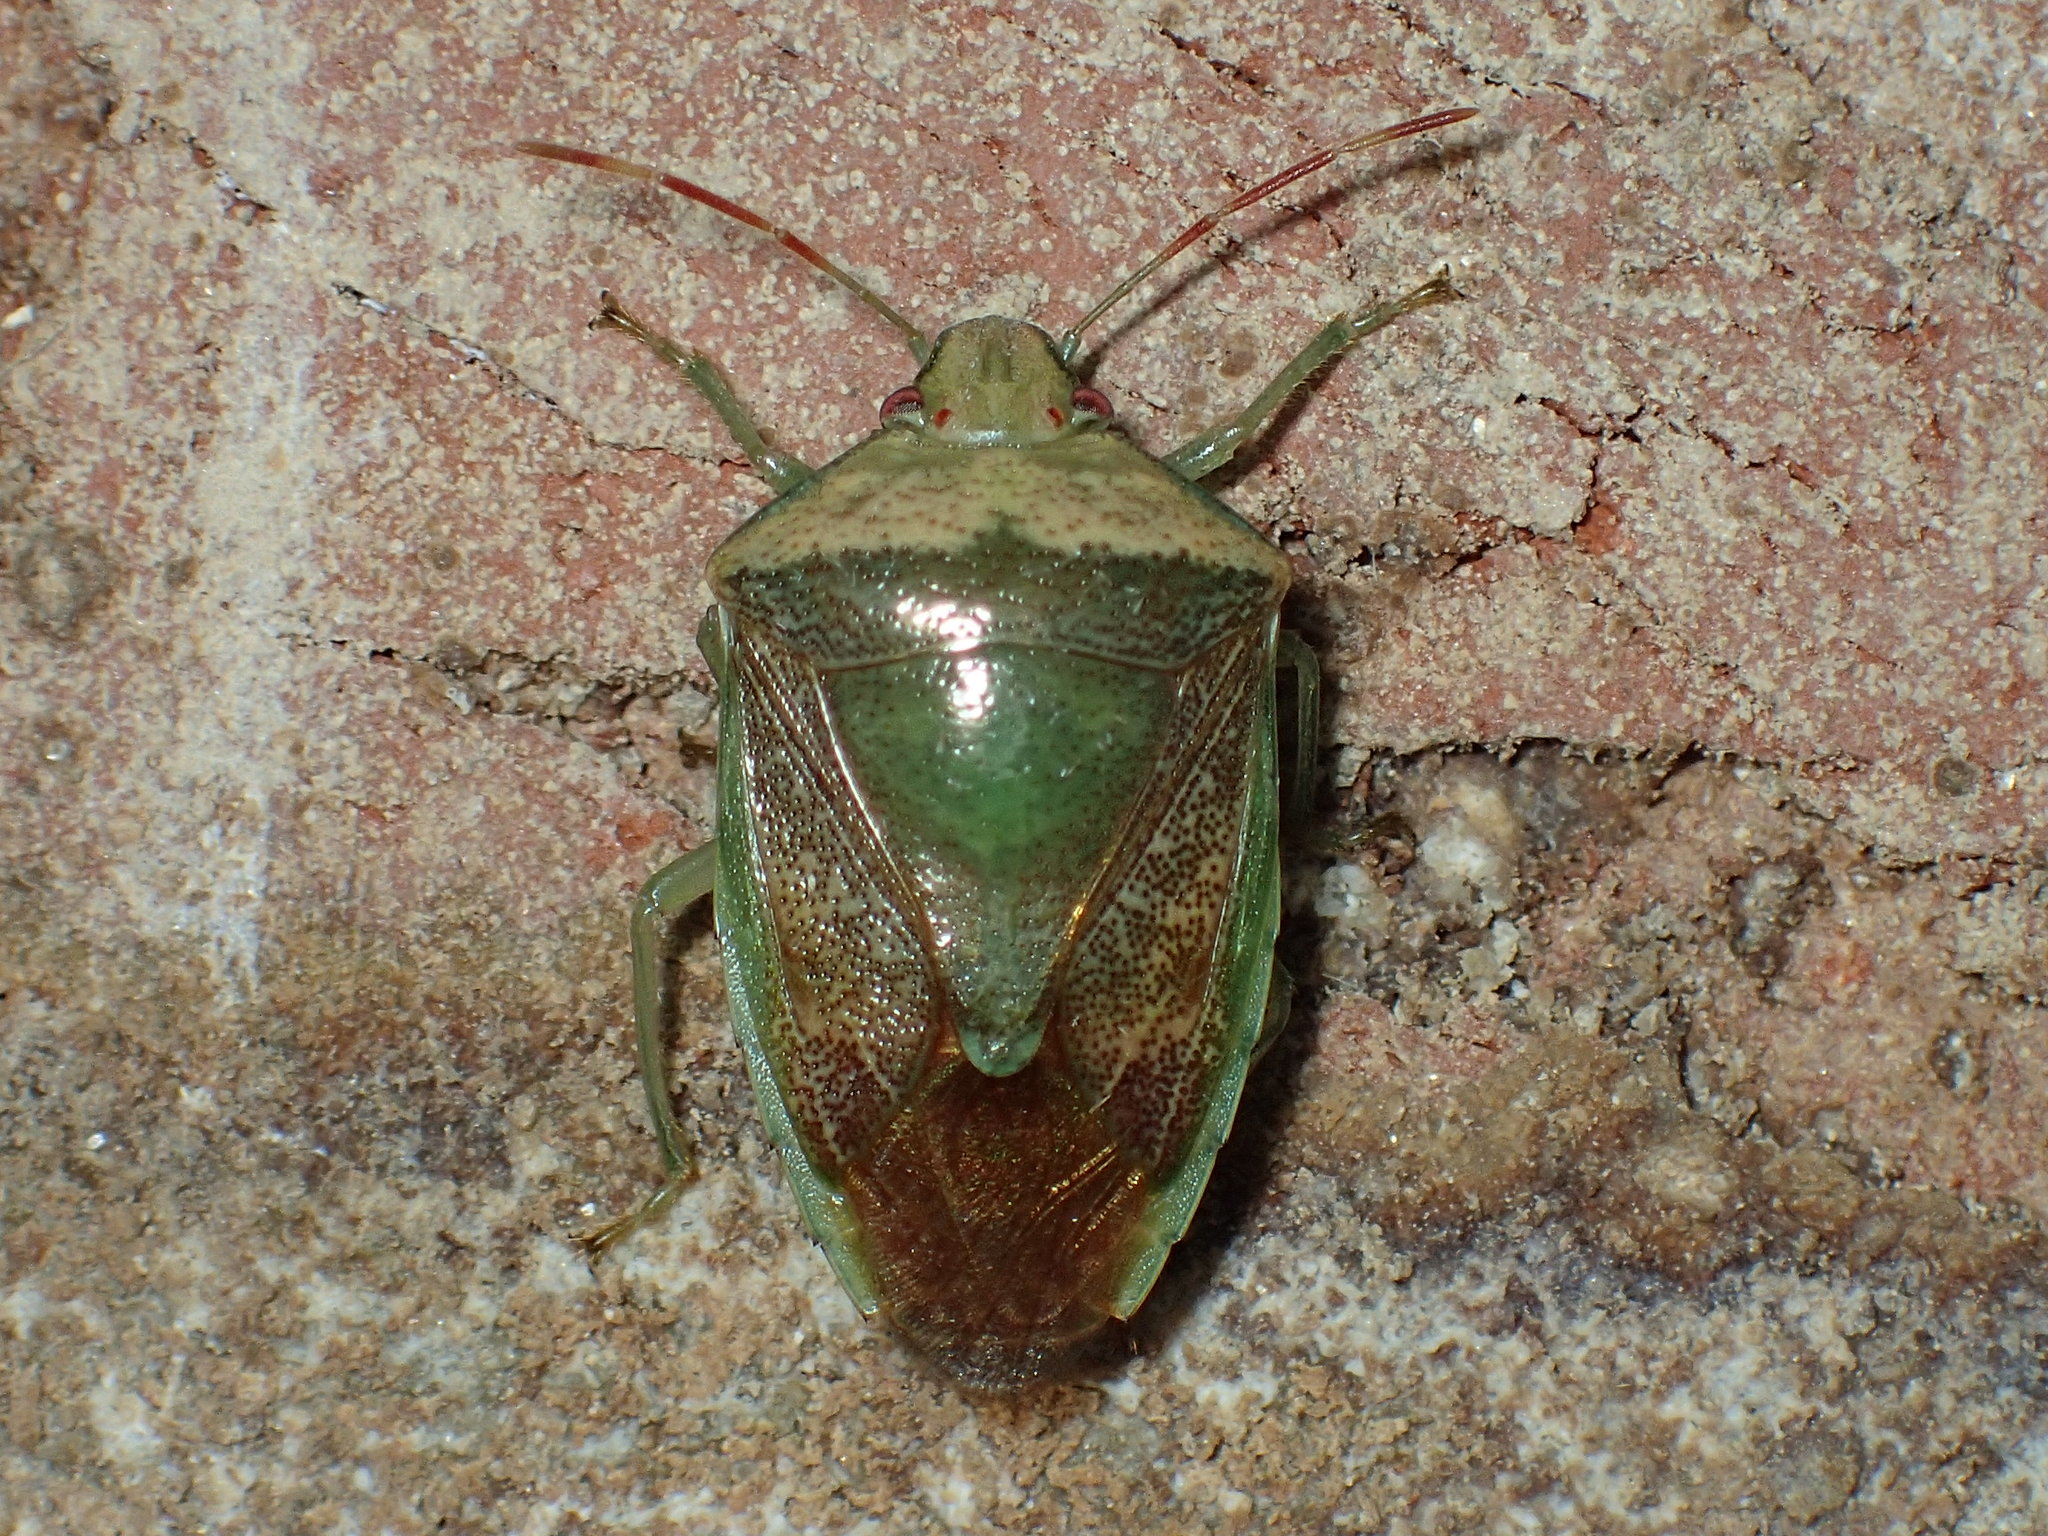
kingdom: Animalia
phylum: Arthropoda
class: Insecta
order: Hemiptera
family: Pentatomidae
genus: Banasa
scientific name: Banasa calva
